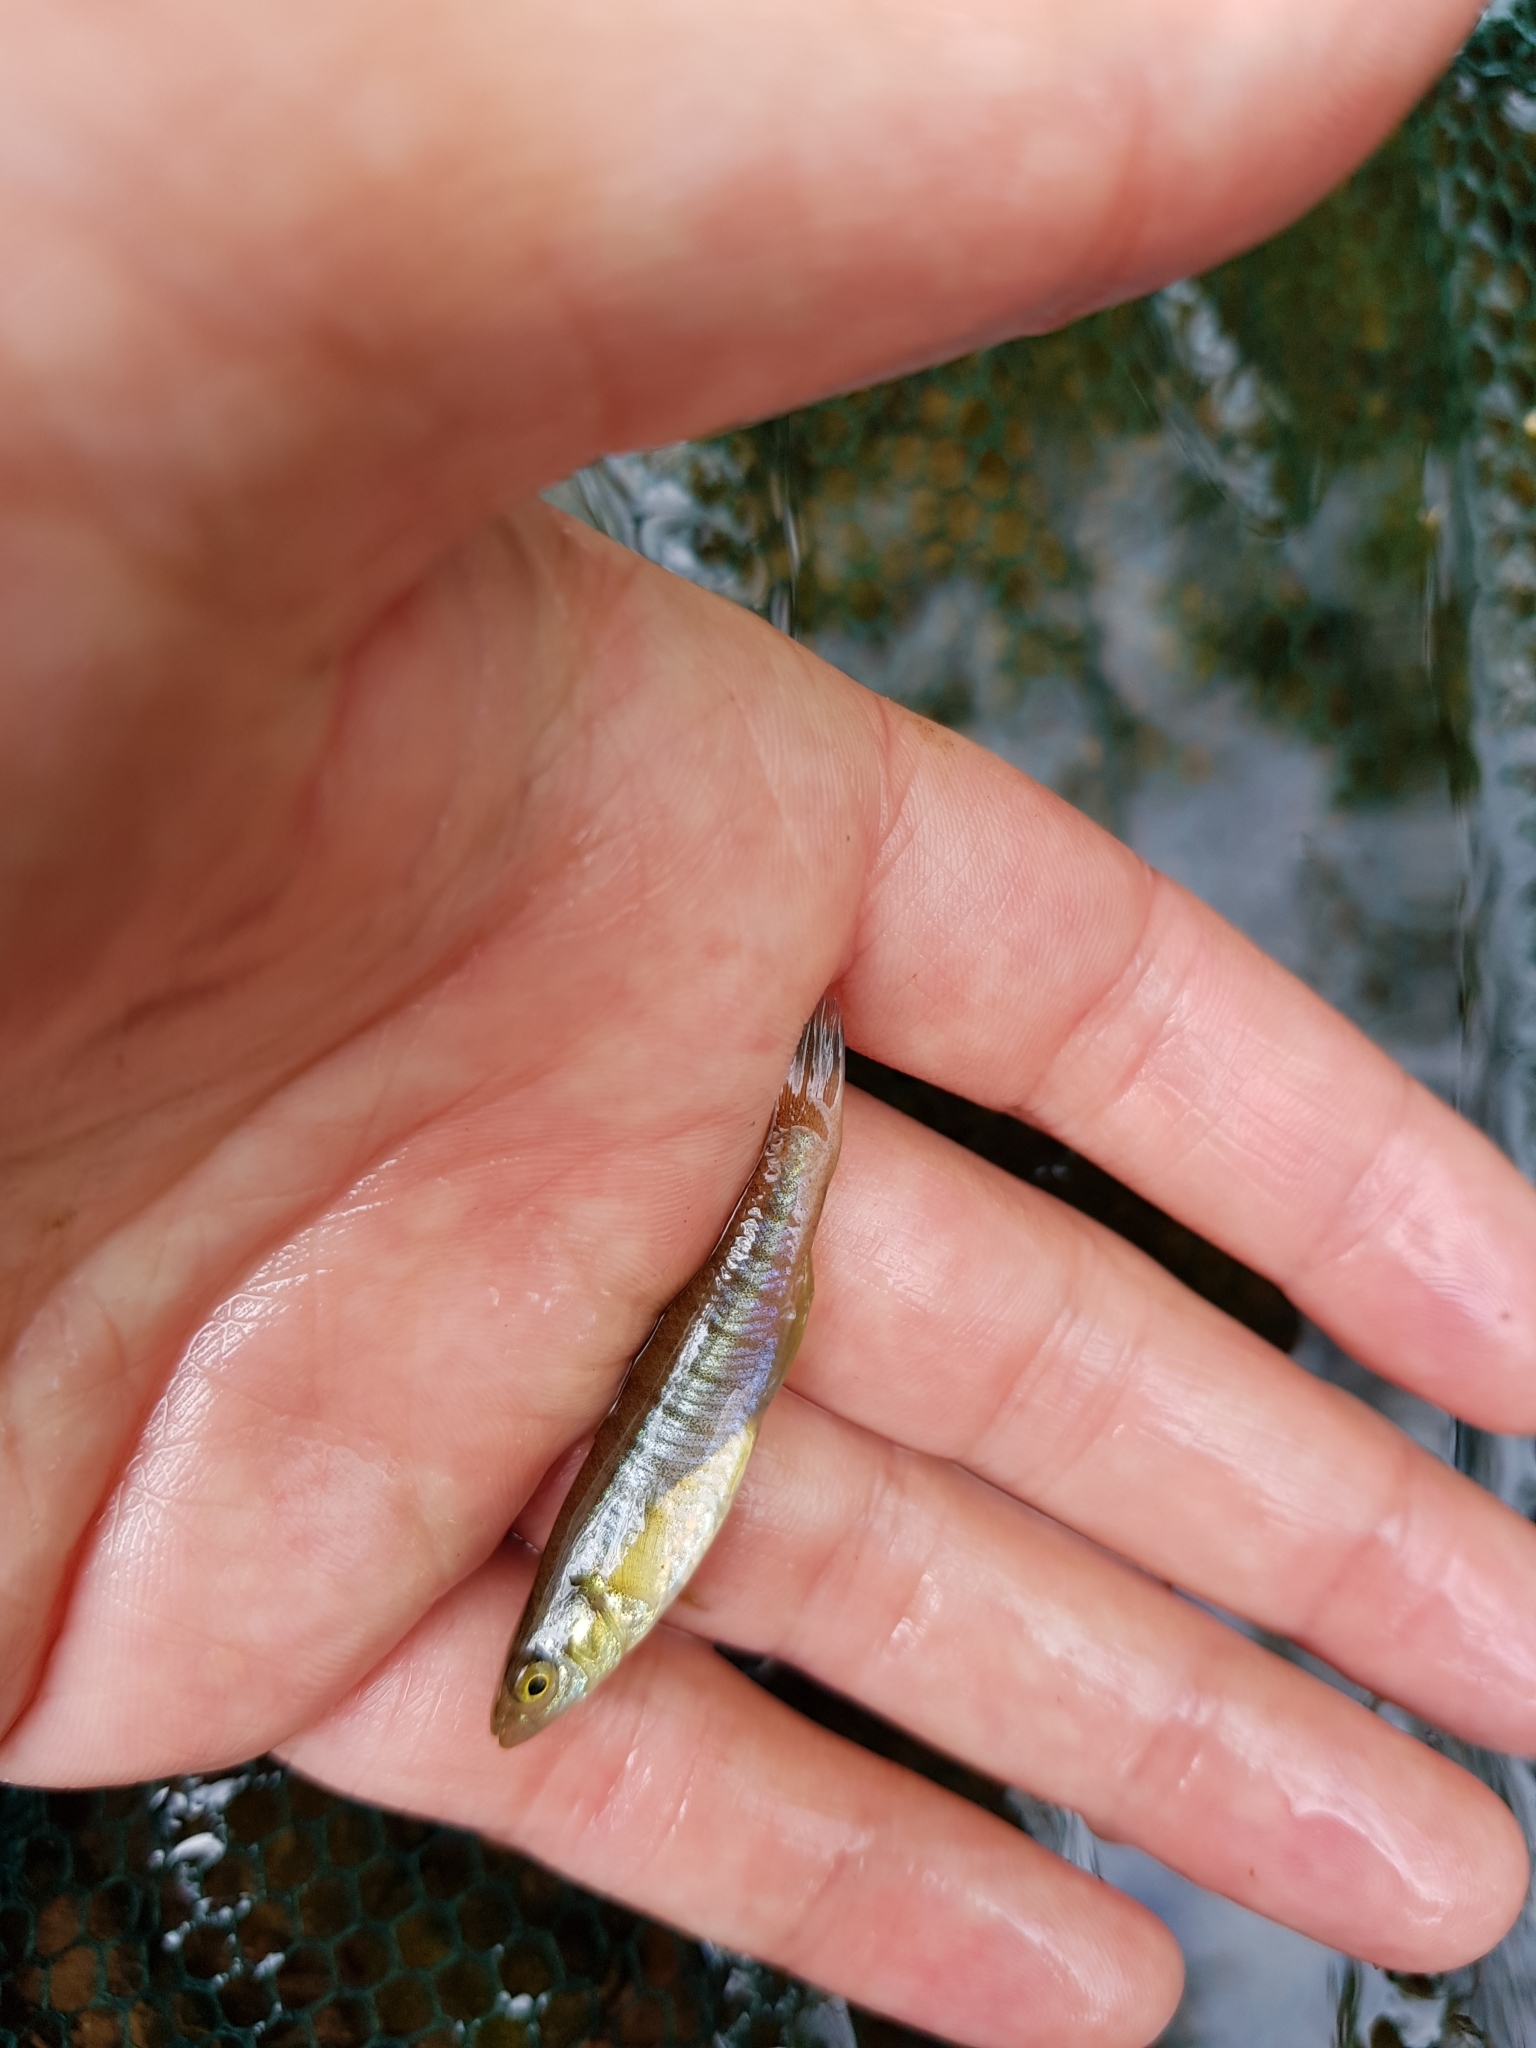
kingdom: Animalia
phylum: Chordata
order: Cyprinodontiformes
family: Fundulidae
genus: Fundulus
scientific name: Fundulus diaphanus
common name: Banded killifish
